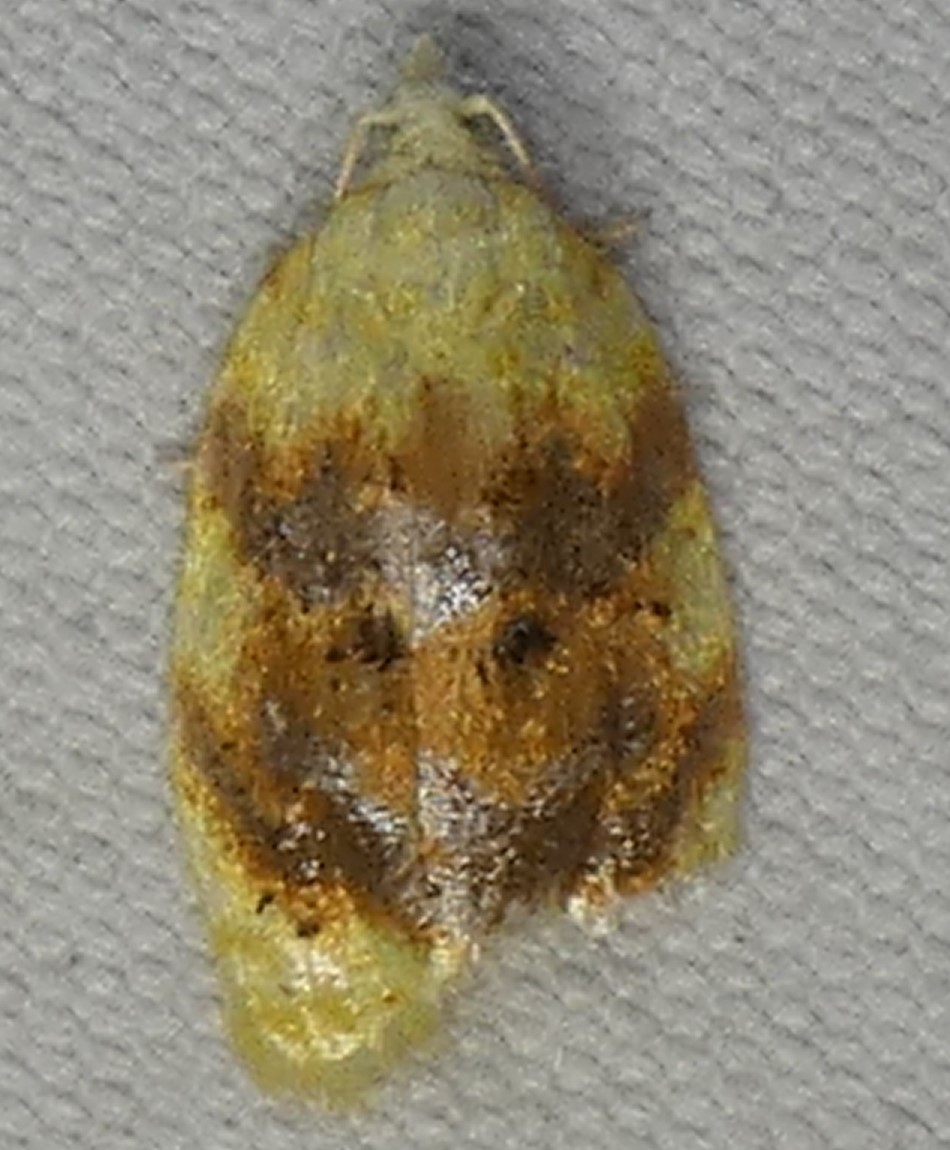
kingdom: Animalia
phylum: Arthropoda
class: Insecta
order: Lepidoptera
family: Tortricidae
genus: Acleris
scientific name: Acleris semipurpurana
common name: Oak leaftier moth
